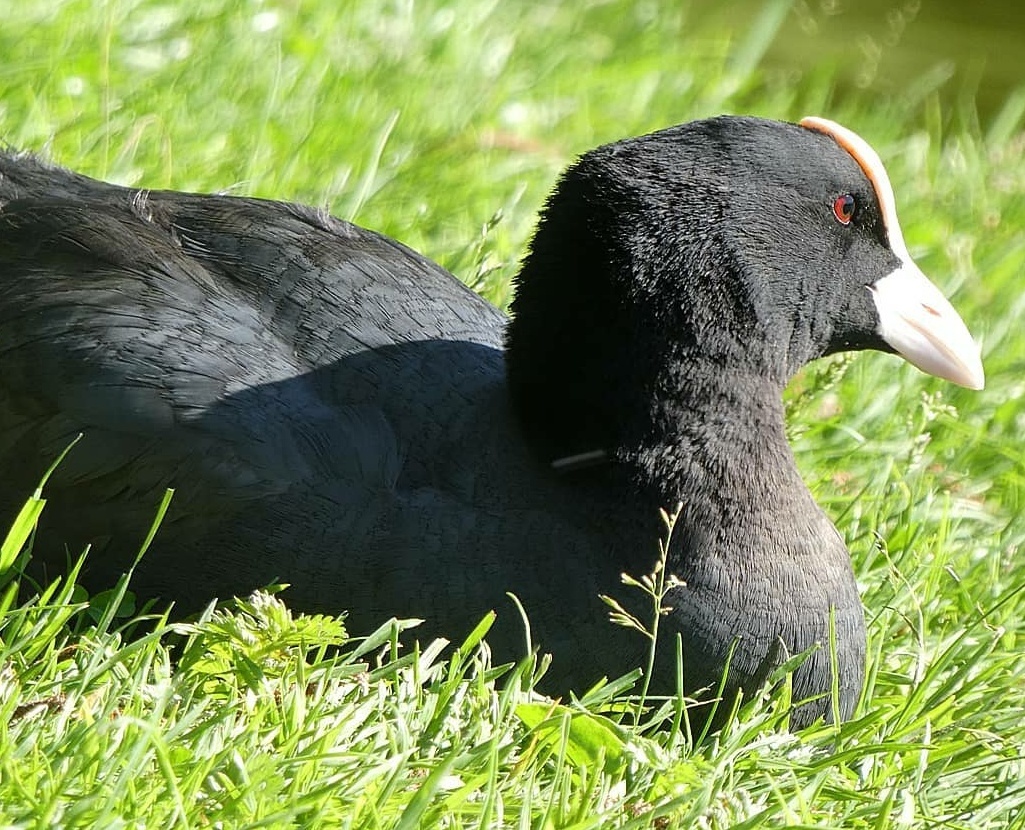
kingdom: Animalia
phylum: Chordata
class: Aves
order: Gruiformes
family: Rallidae
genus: Fulica
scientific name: Fulica atra
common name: Eurasian coot
